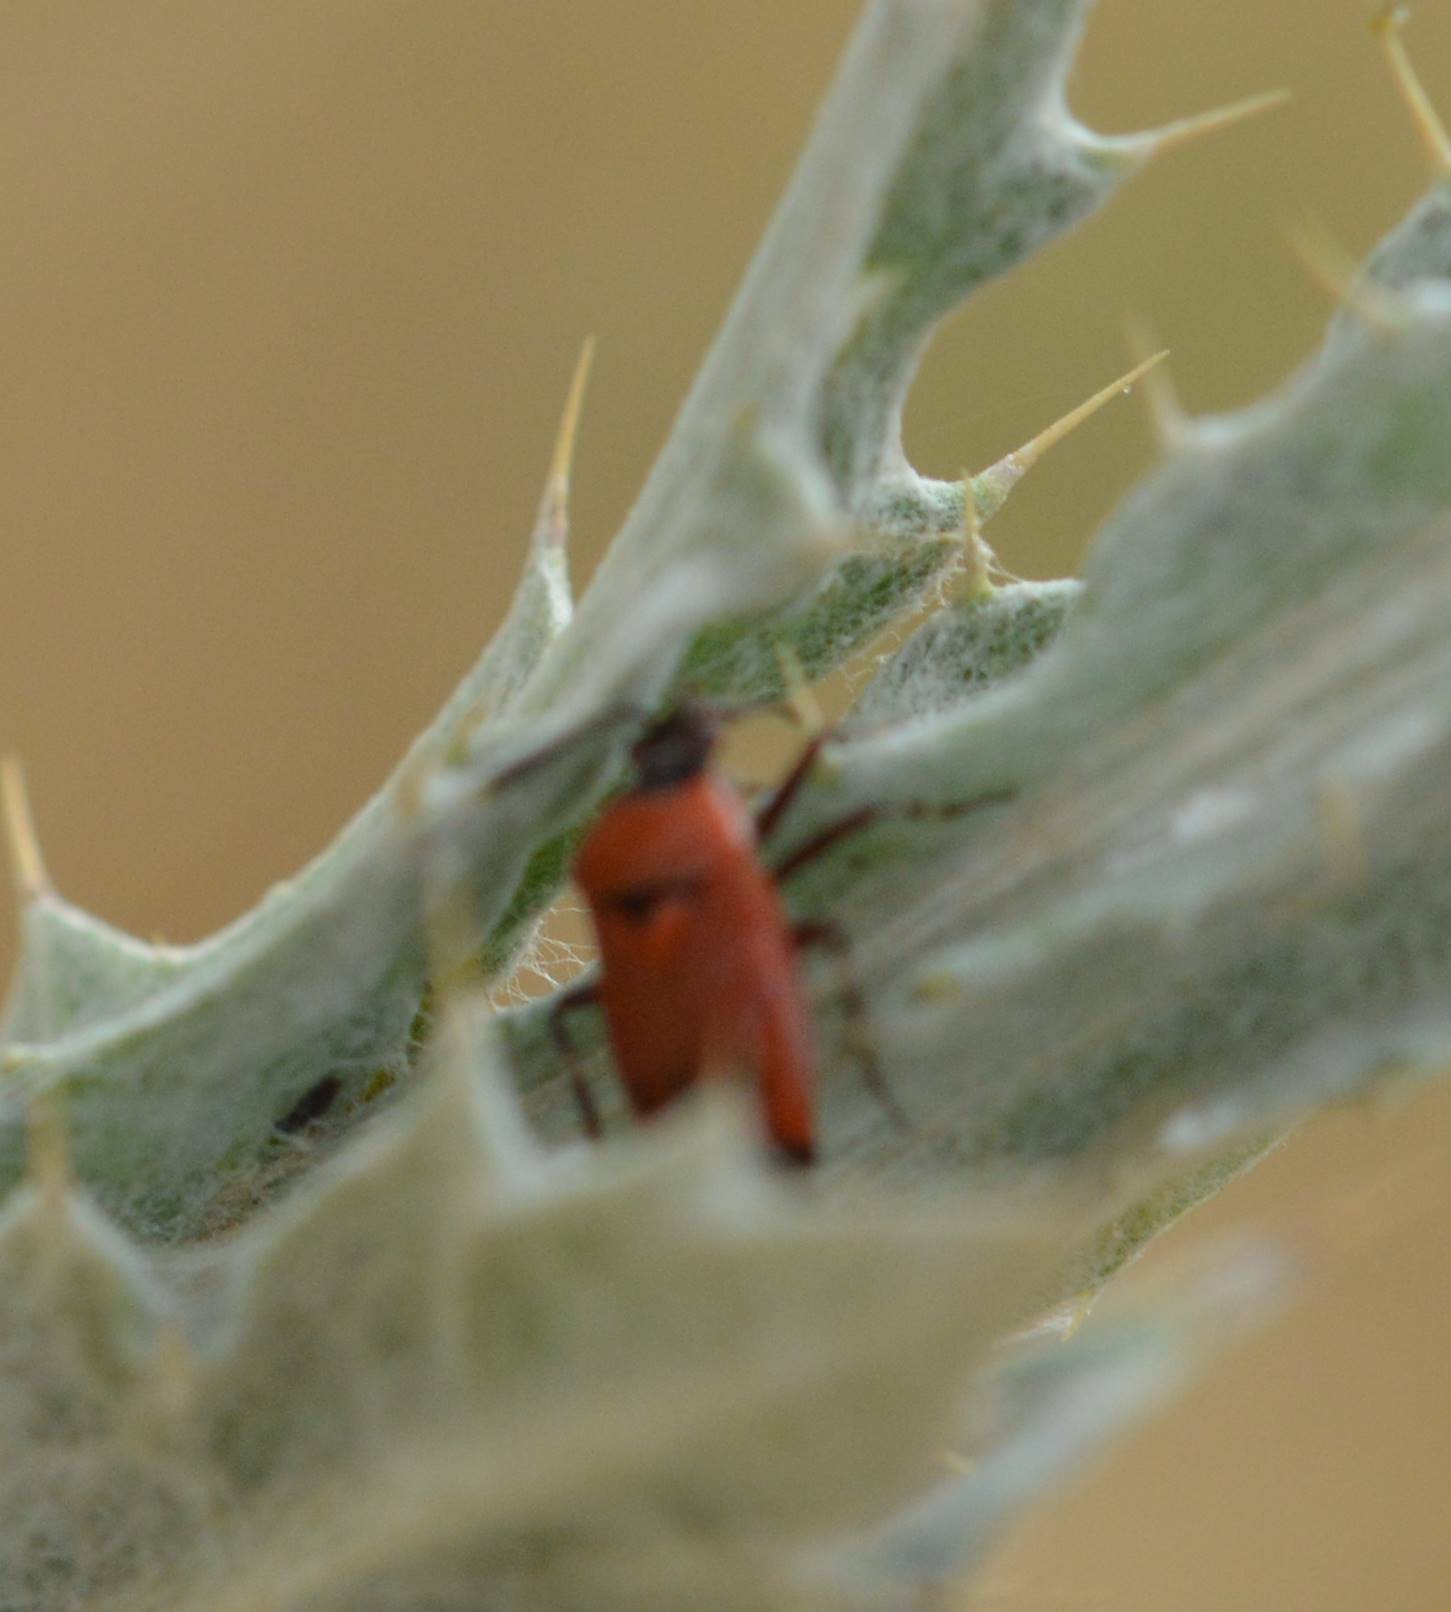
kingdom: Animalia
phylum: Arthropoda
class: Insecta
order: Hemiptera
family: Miridae
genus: Deraeocoris
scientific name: Deraeocoris punctum
